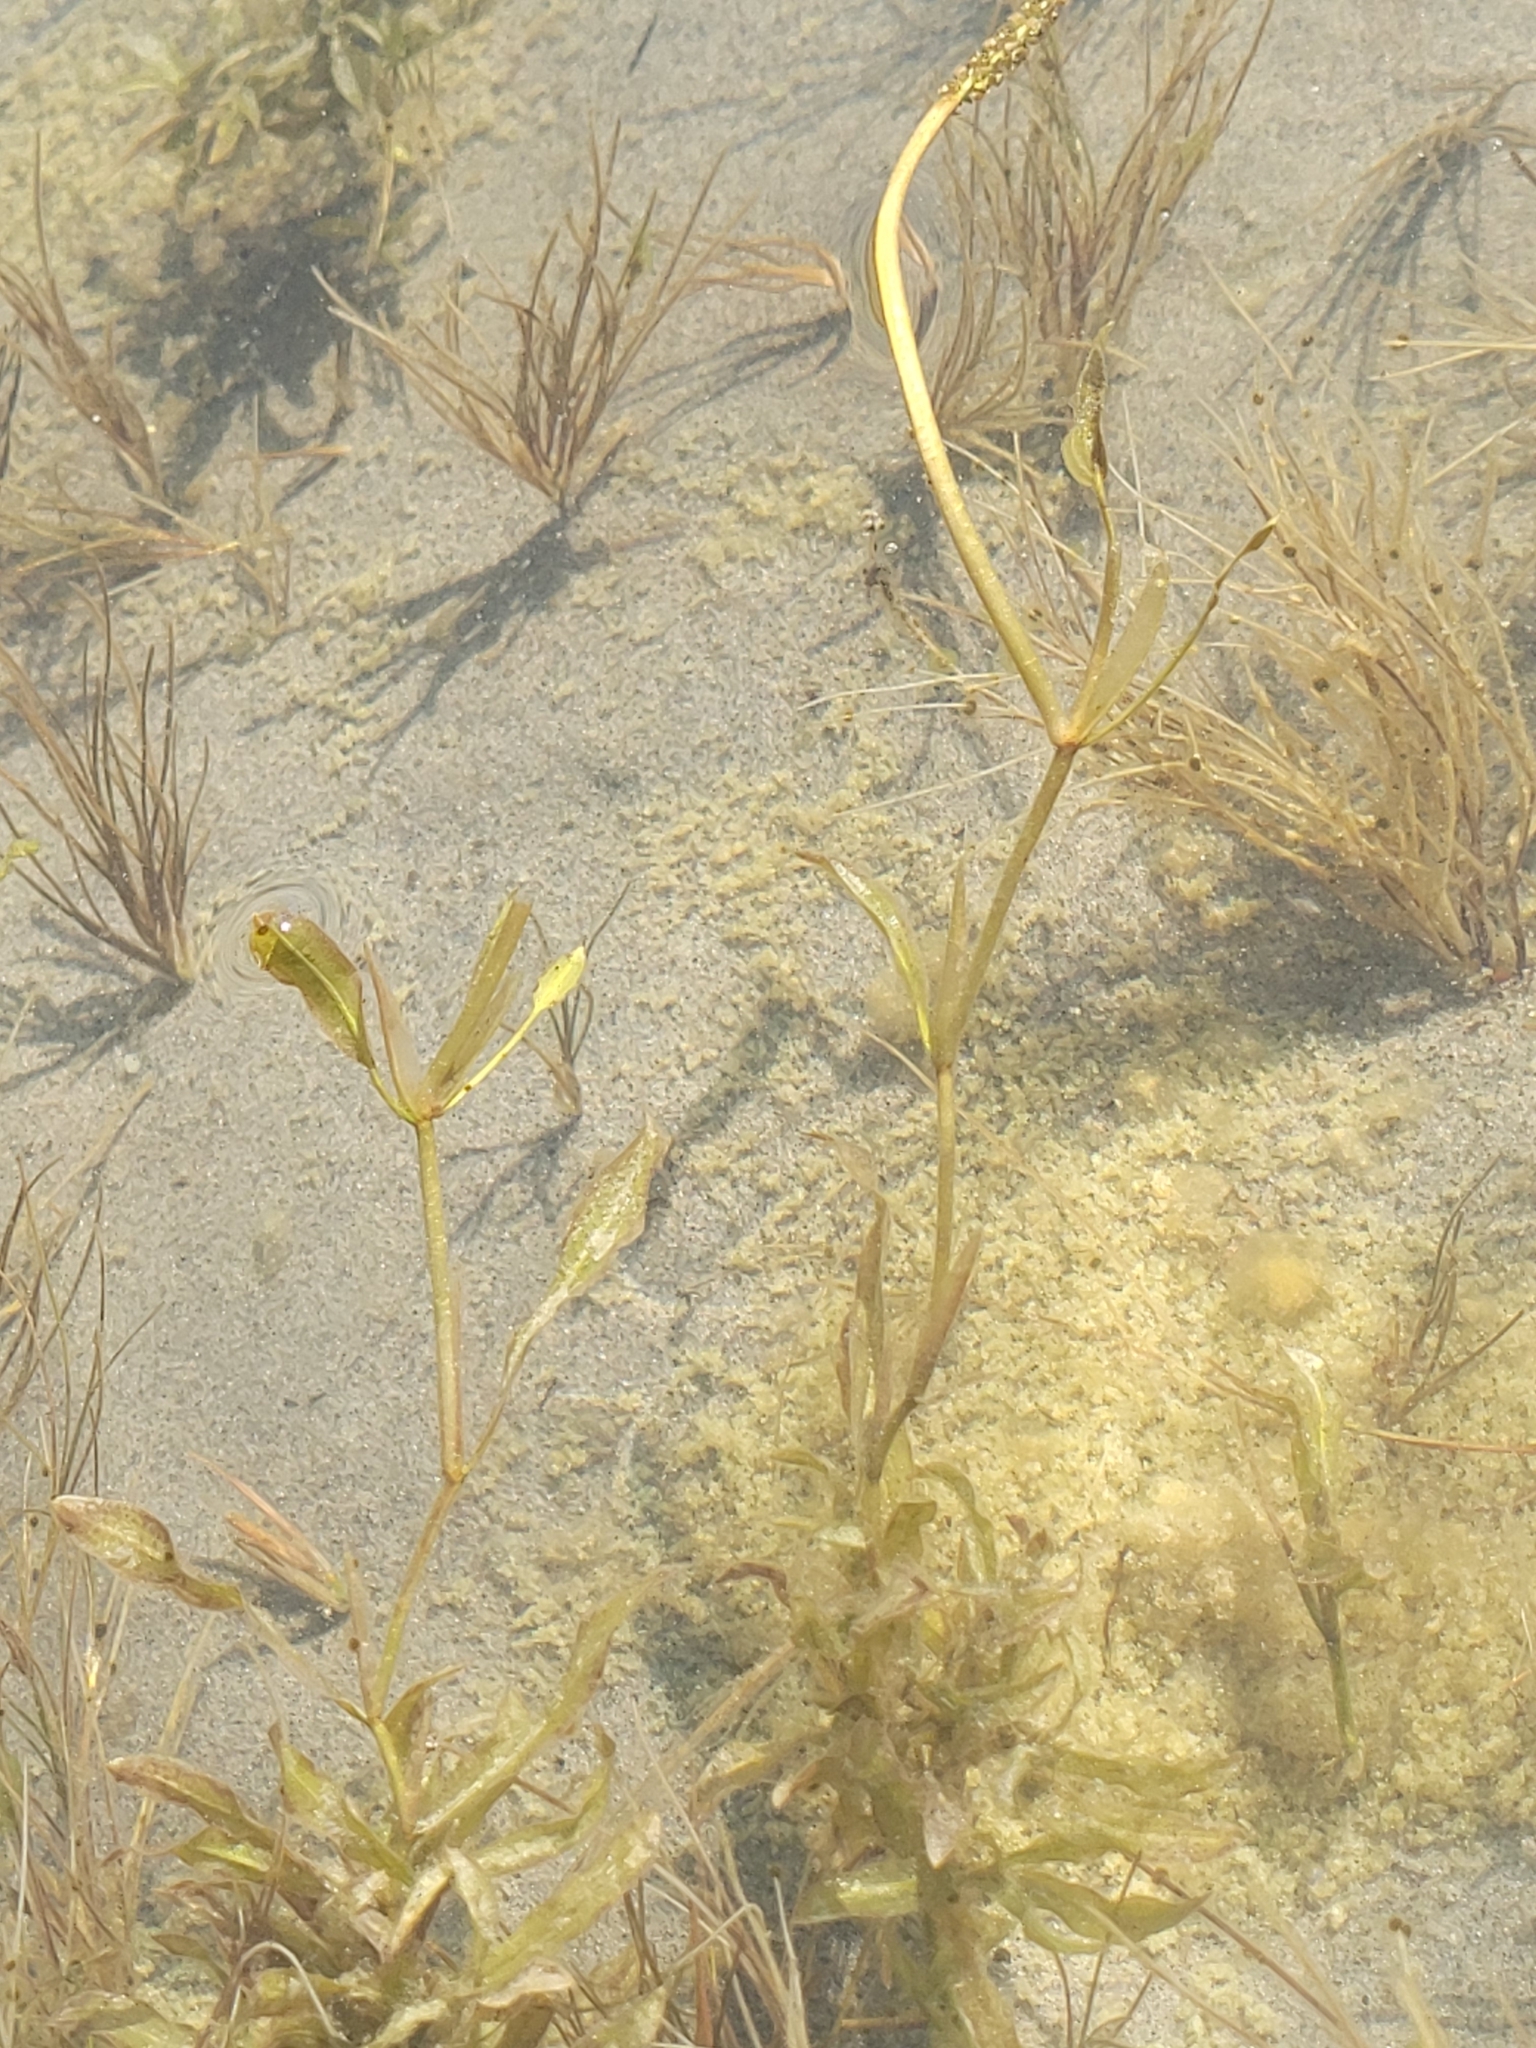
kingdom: Plantae
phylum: Tracheophyta
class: Liliopsida
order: Alismatales
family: Potamogetonaceae
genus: Potamogeton
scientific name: Potamogeton richardsonii
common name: Richardson's pondweed
